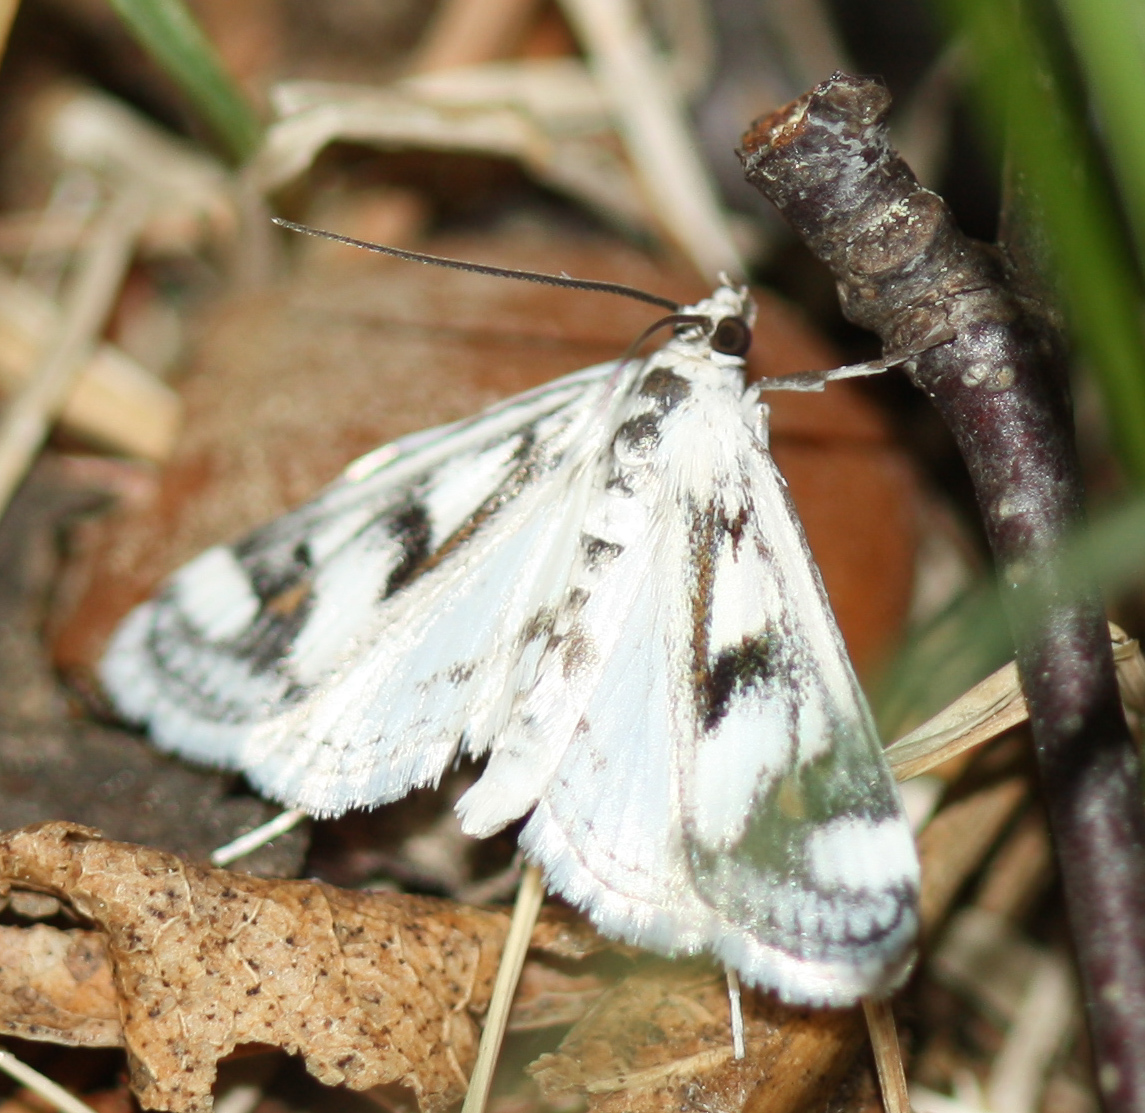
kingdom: Animalia
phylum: Arthropoda
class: Insecta
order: Lepidoptera
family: Crambidae
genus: Parapoynx
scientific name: Parapoynx maculalis
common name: Polymorphic pondweed moth
